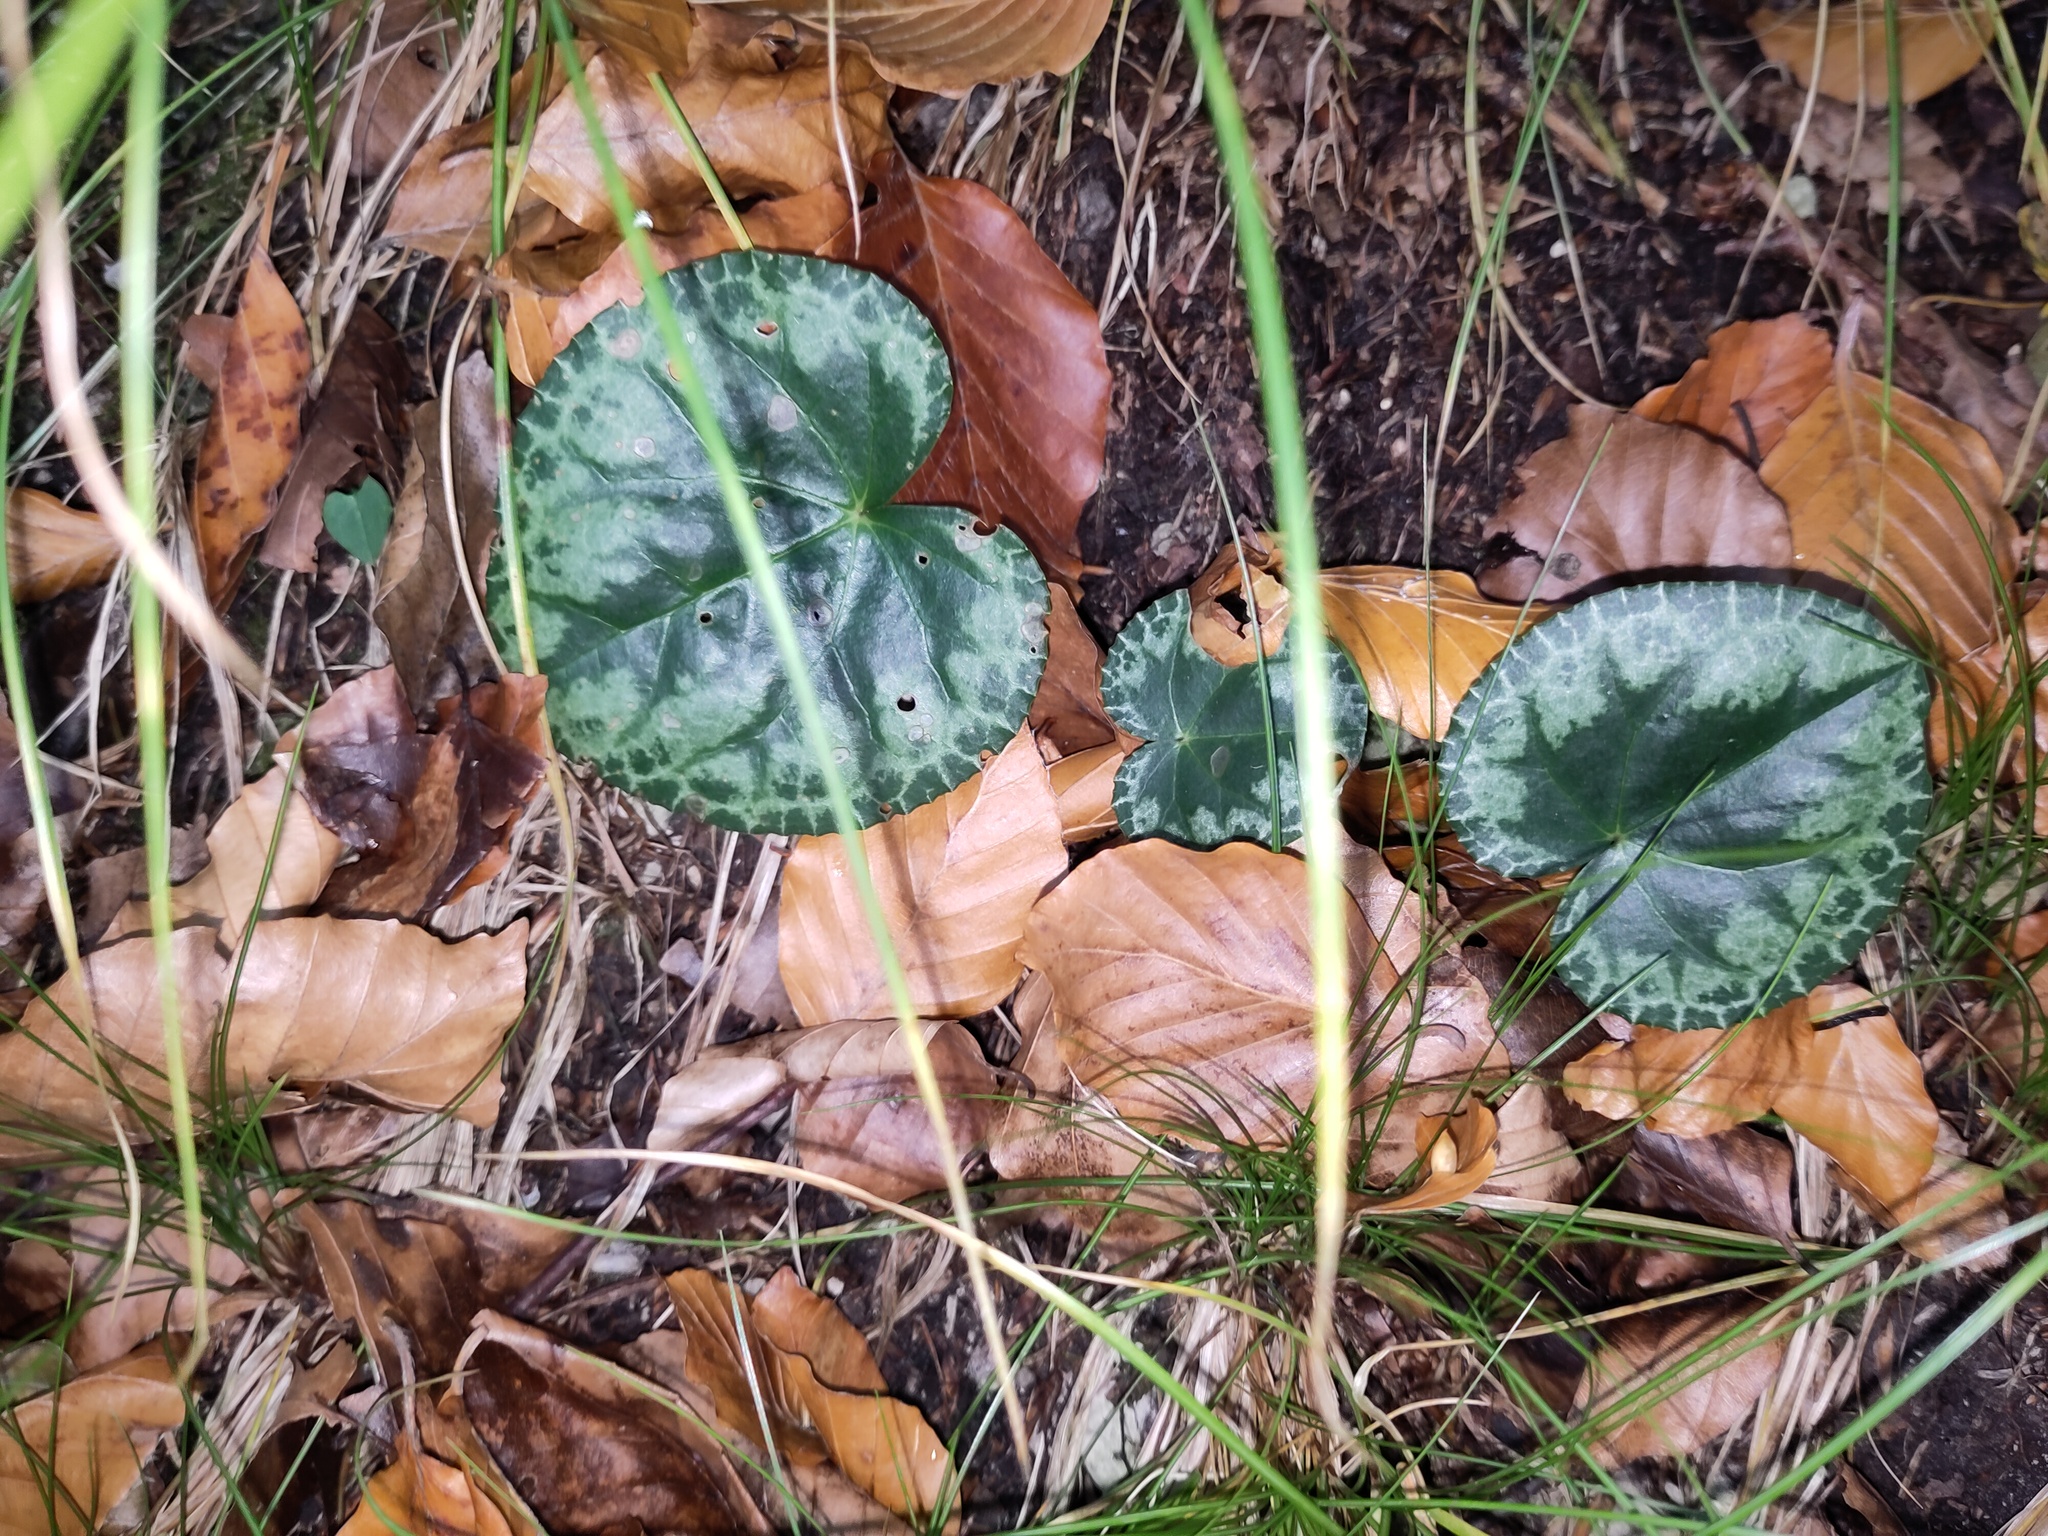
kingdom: Plantae
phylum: Tracheophyta
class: Magnoliopsida
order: Ericales
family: Primulaceae
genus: Cyclamen
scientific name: Cyclamen purpurascens
